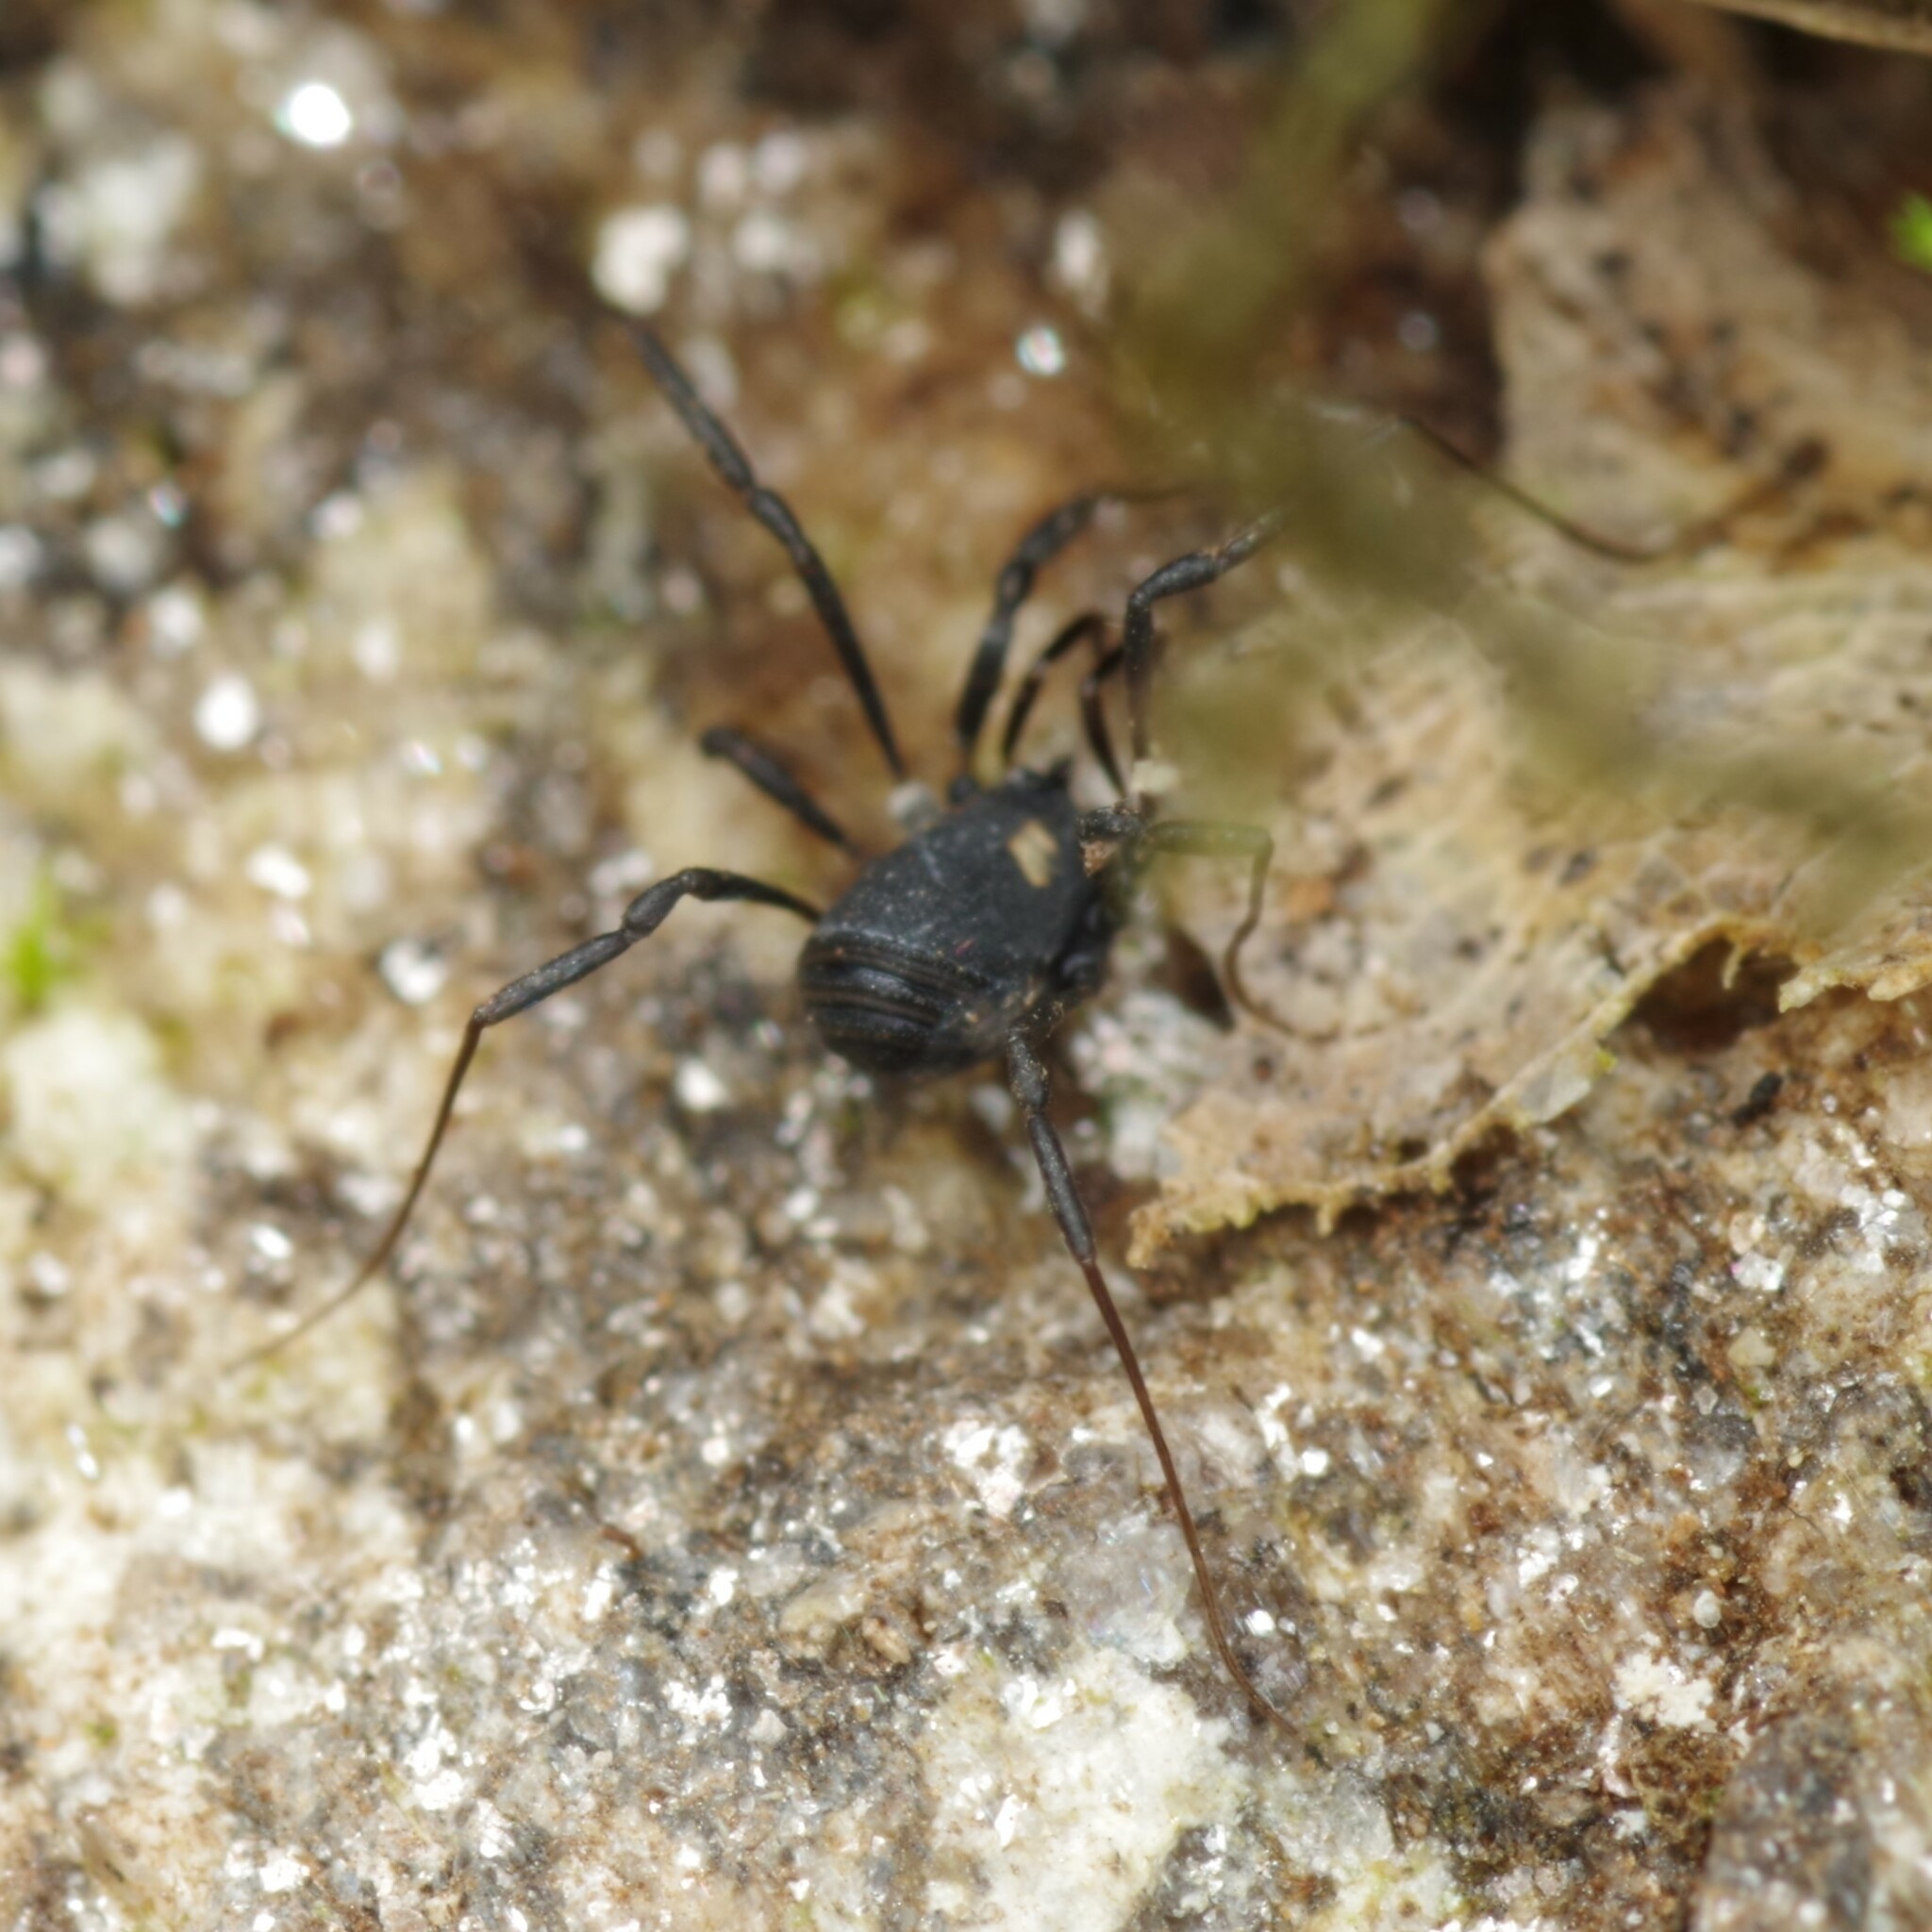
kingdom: Animalia
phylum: Arthropoda
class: Arachnida
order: Opiliones
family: Nemastomatidae
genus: Nemastoma
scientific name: Nemastoma bimaculatum
